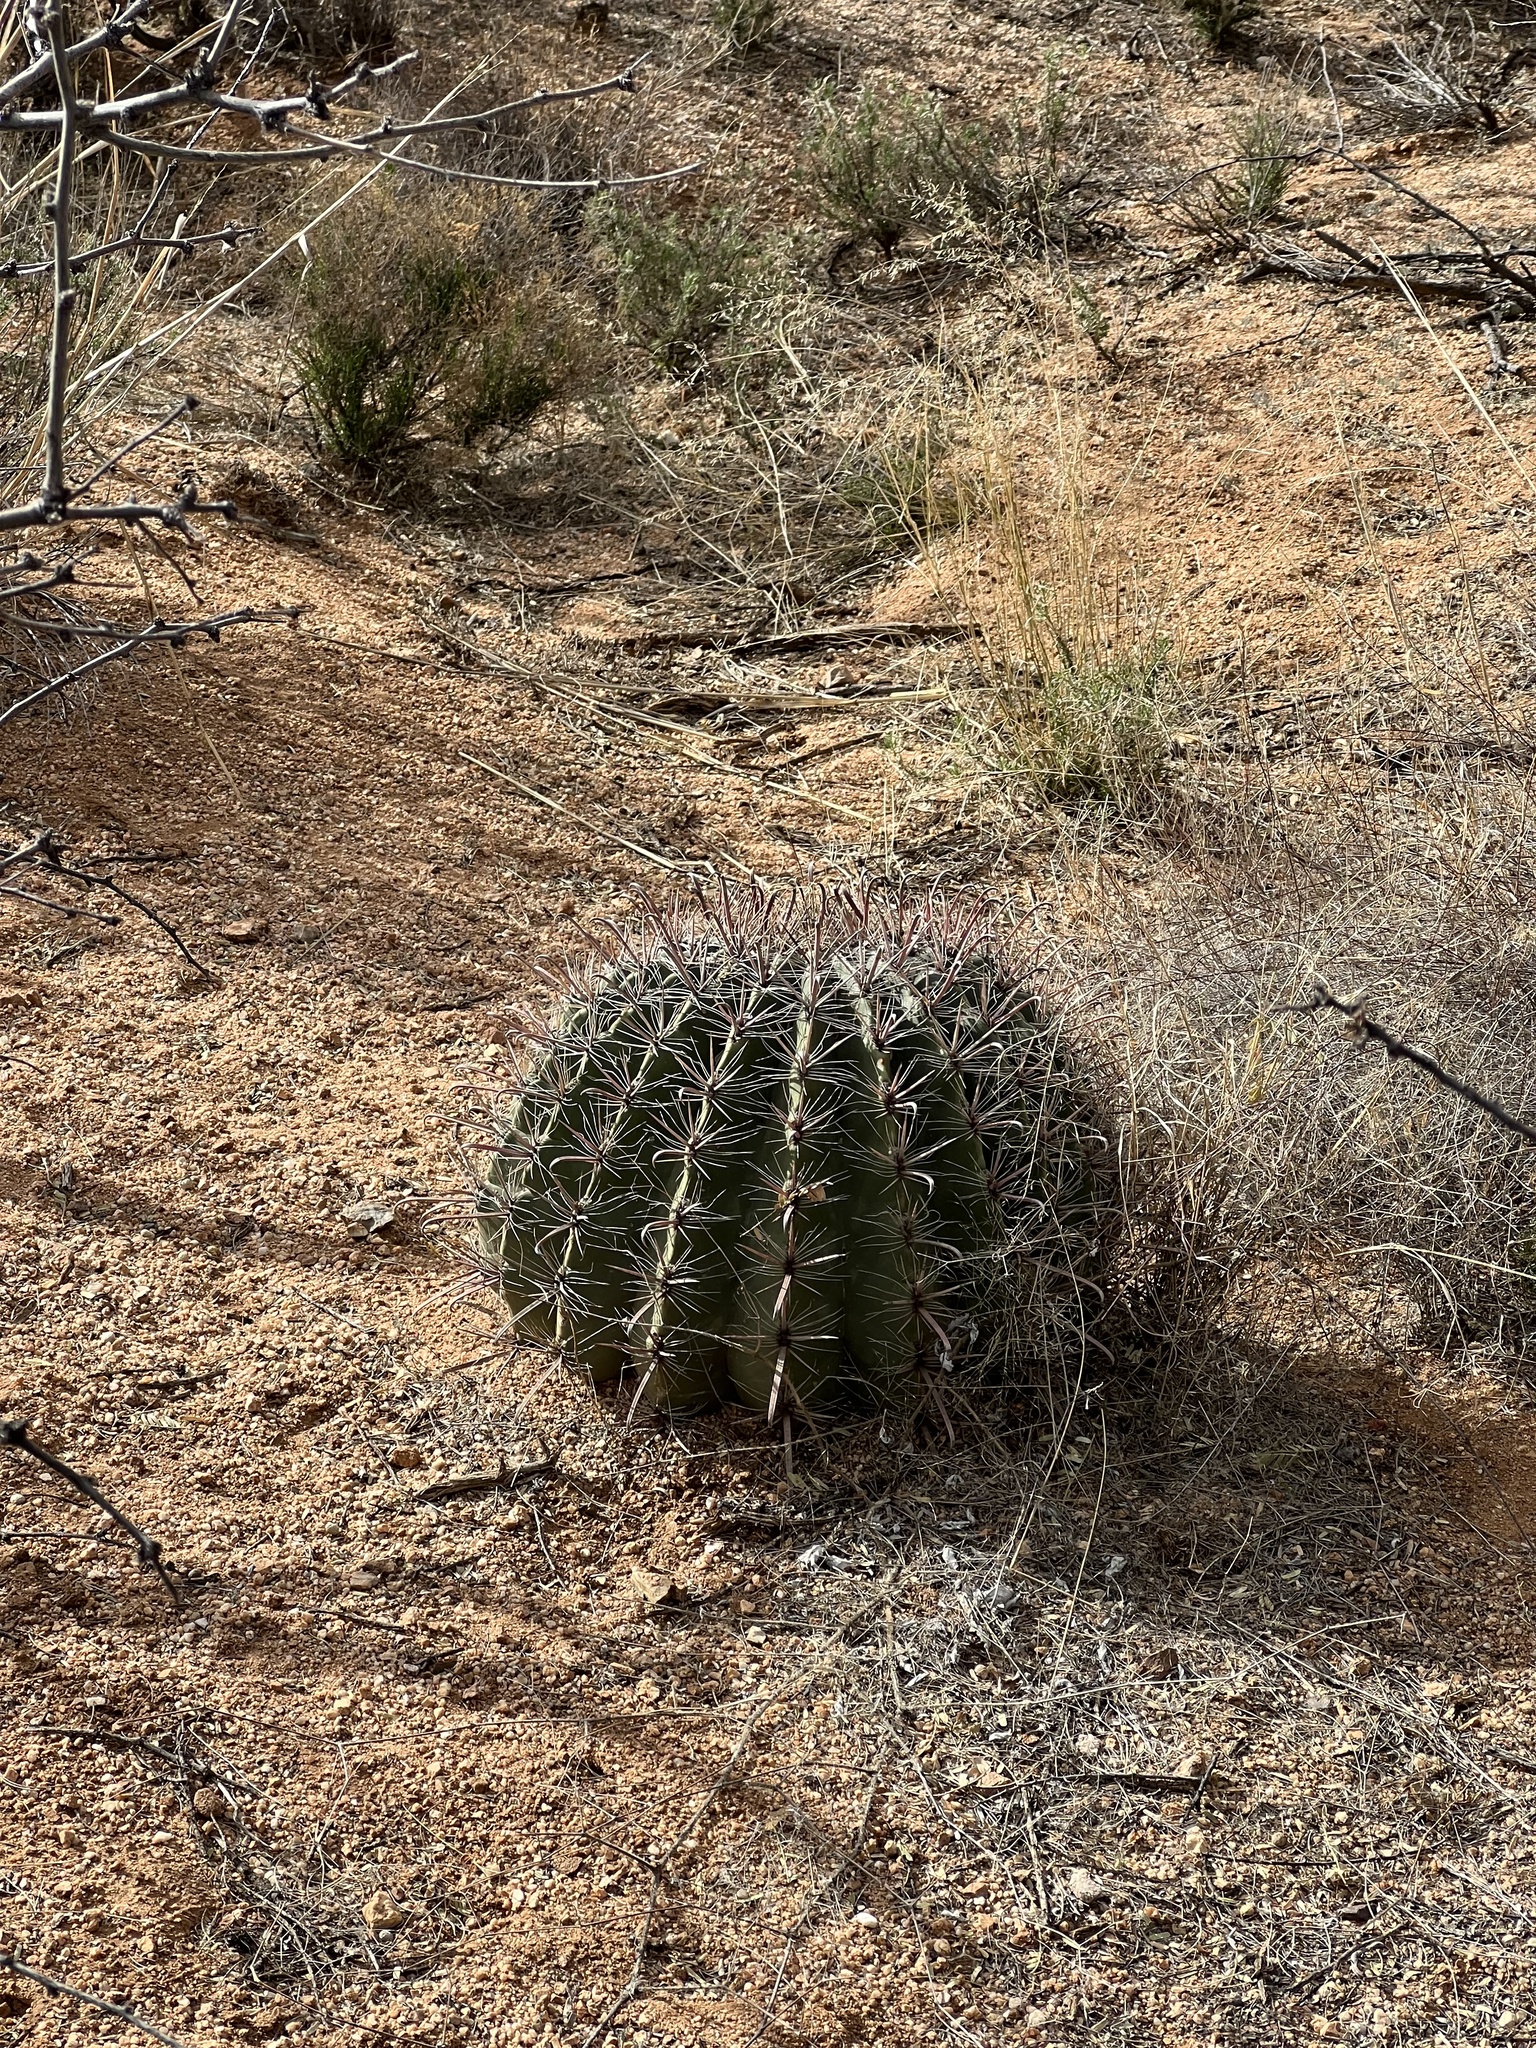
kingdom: Plantae
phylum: Tracheophyta
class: Magnoliopsida
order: Caryophyllales
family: Cactaceae
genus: Ferocactus
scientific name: Ferocactus wislizeni
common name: Candy barrel cactus
